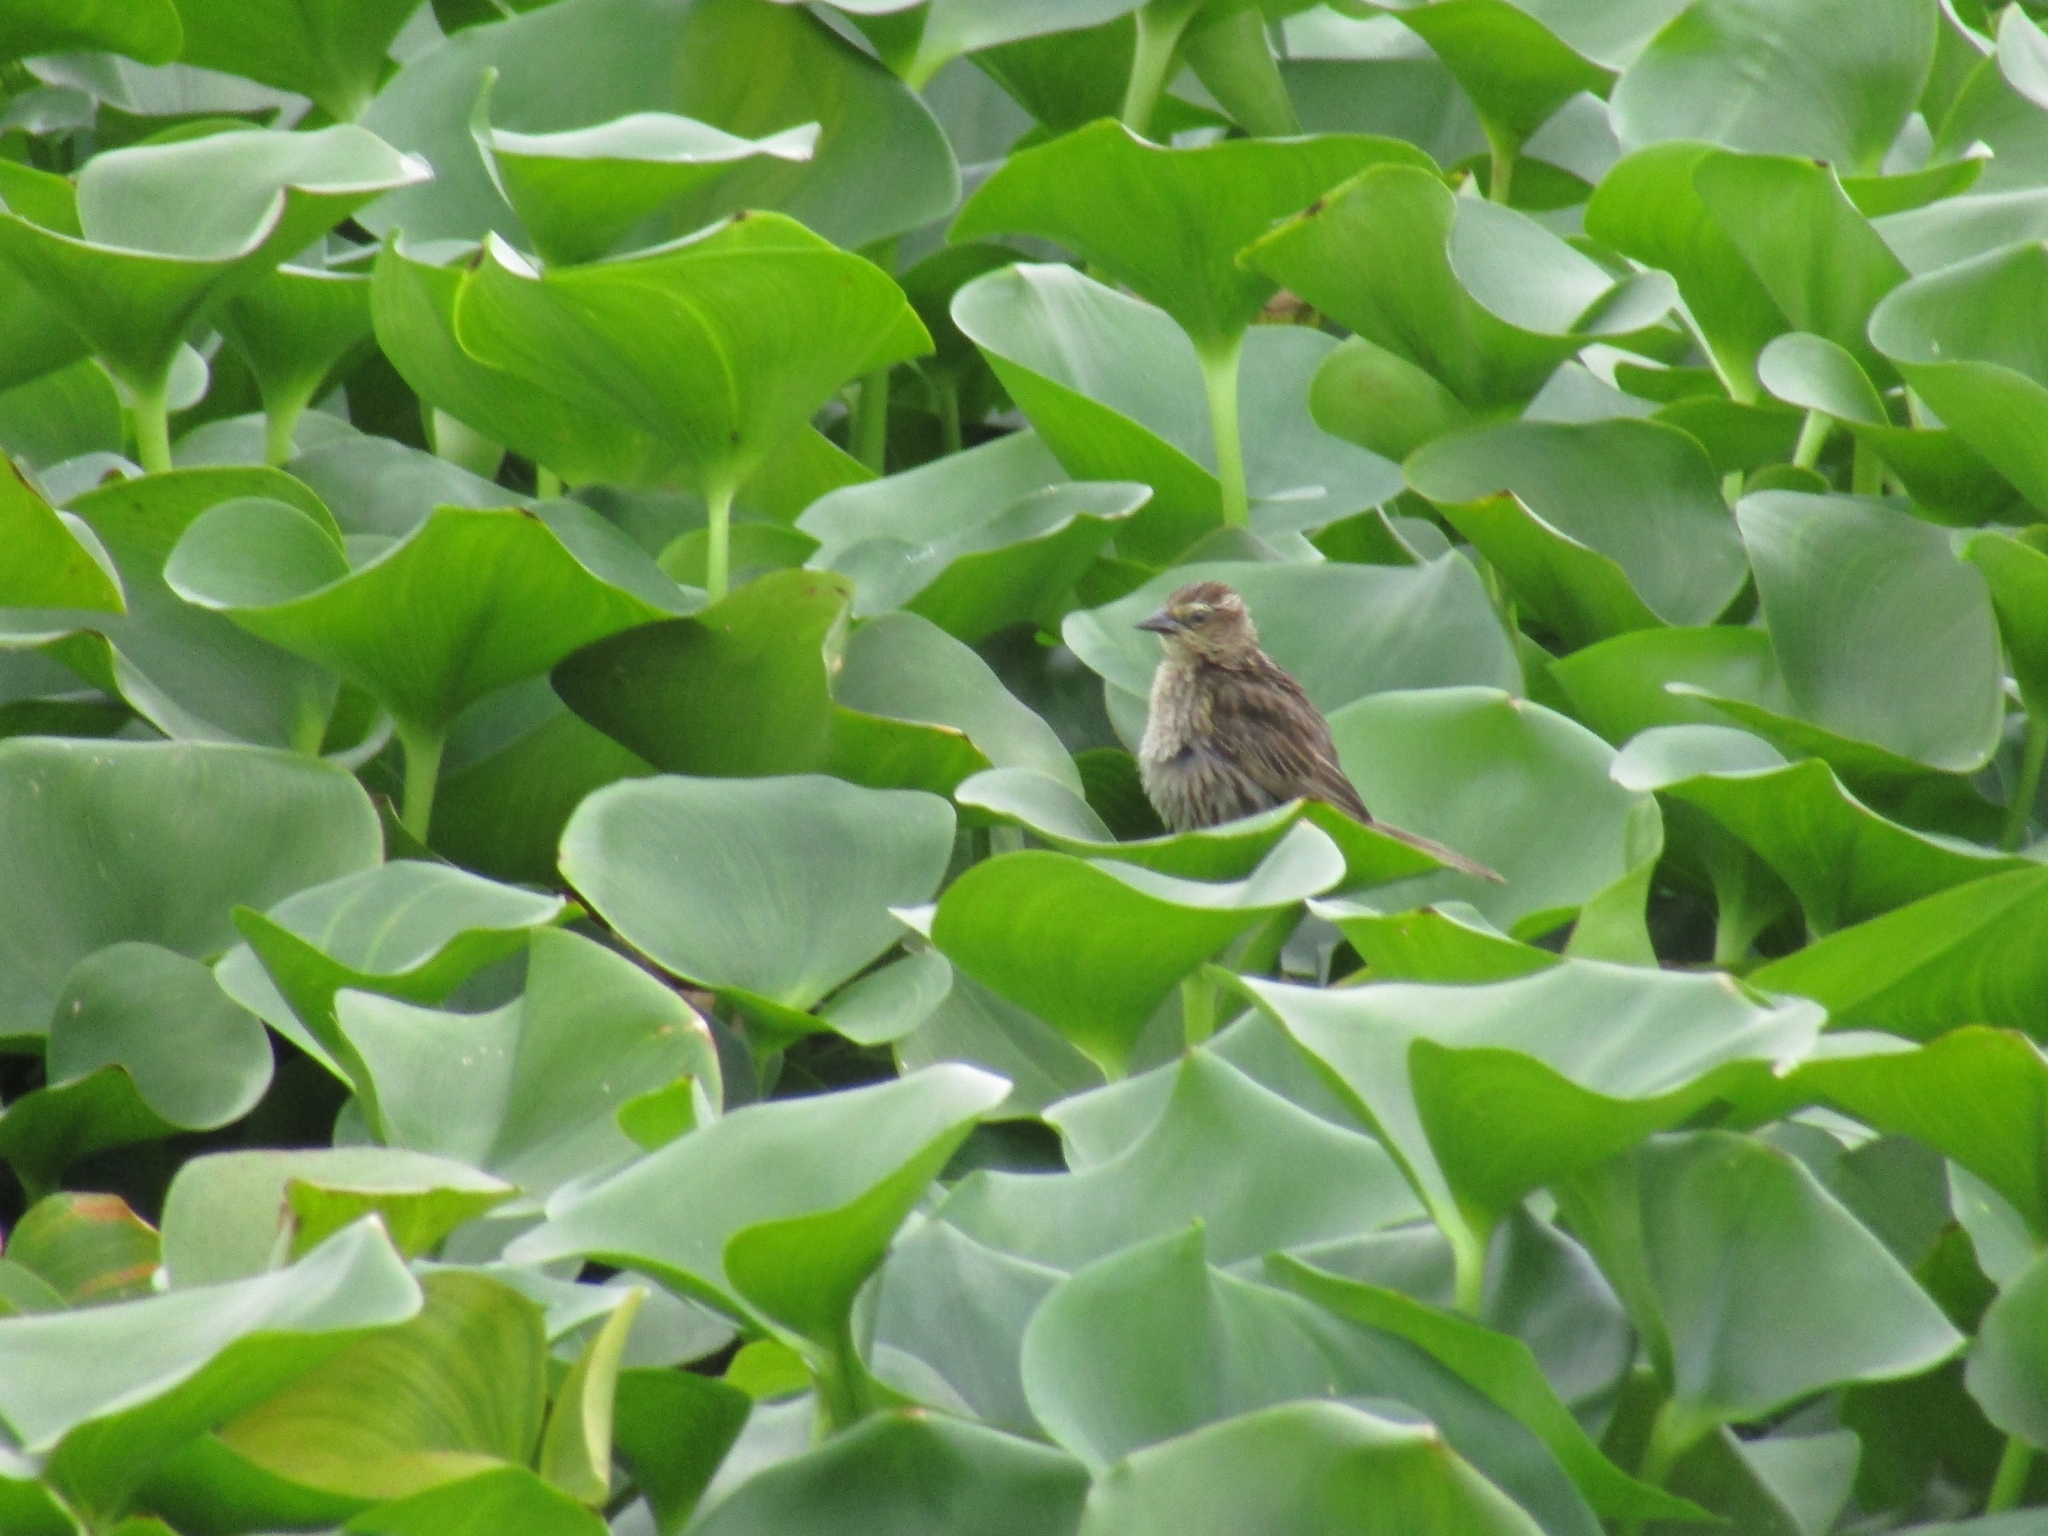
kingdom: Animalia
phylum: Chordata
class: Aves
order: Passeriformes
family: Icteridae
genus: Agelasticus
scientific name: Agelasticus thilius
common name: Yellow-winged blackbird
